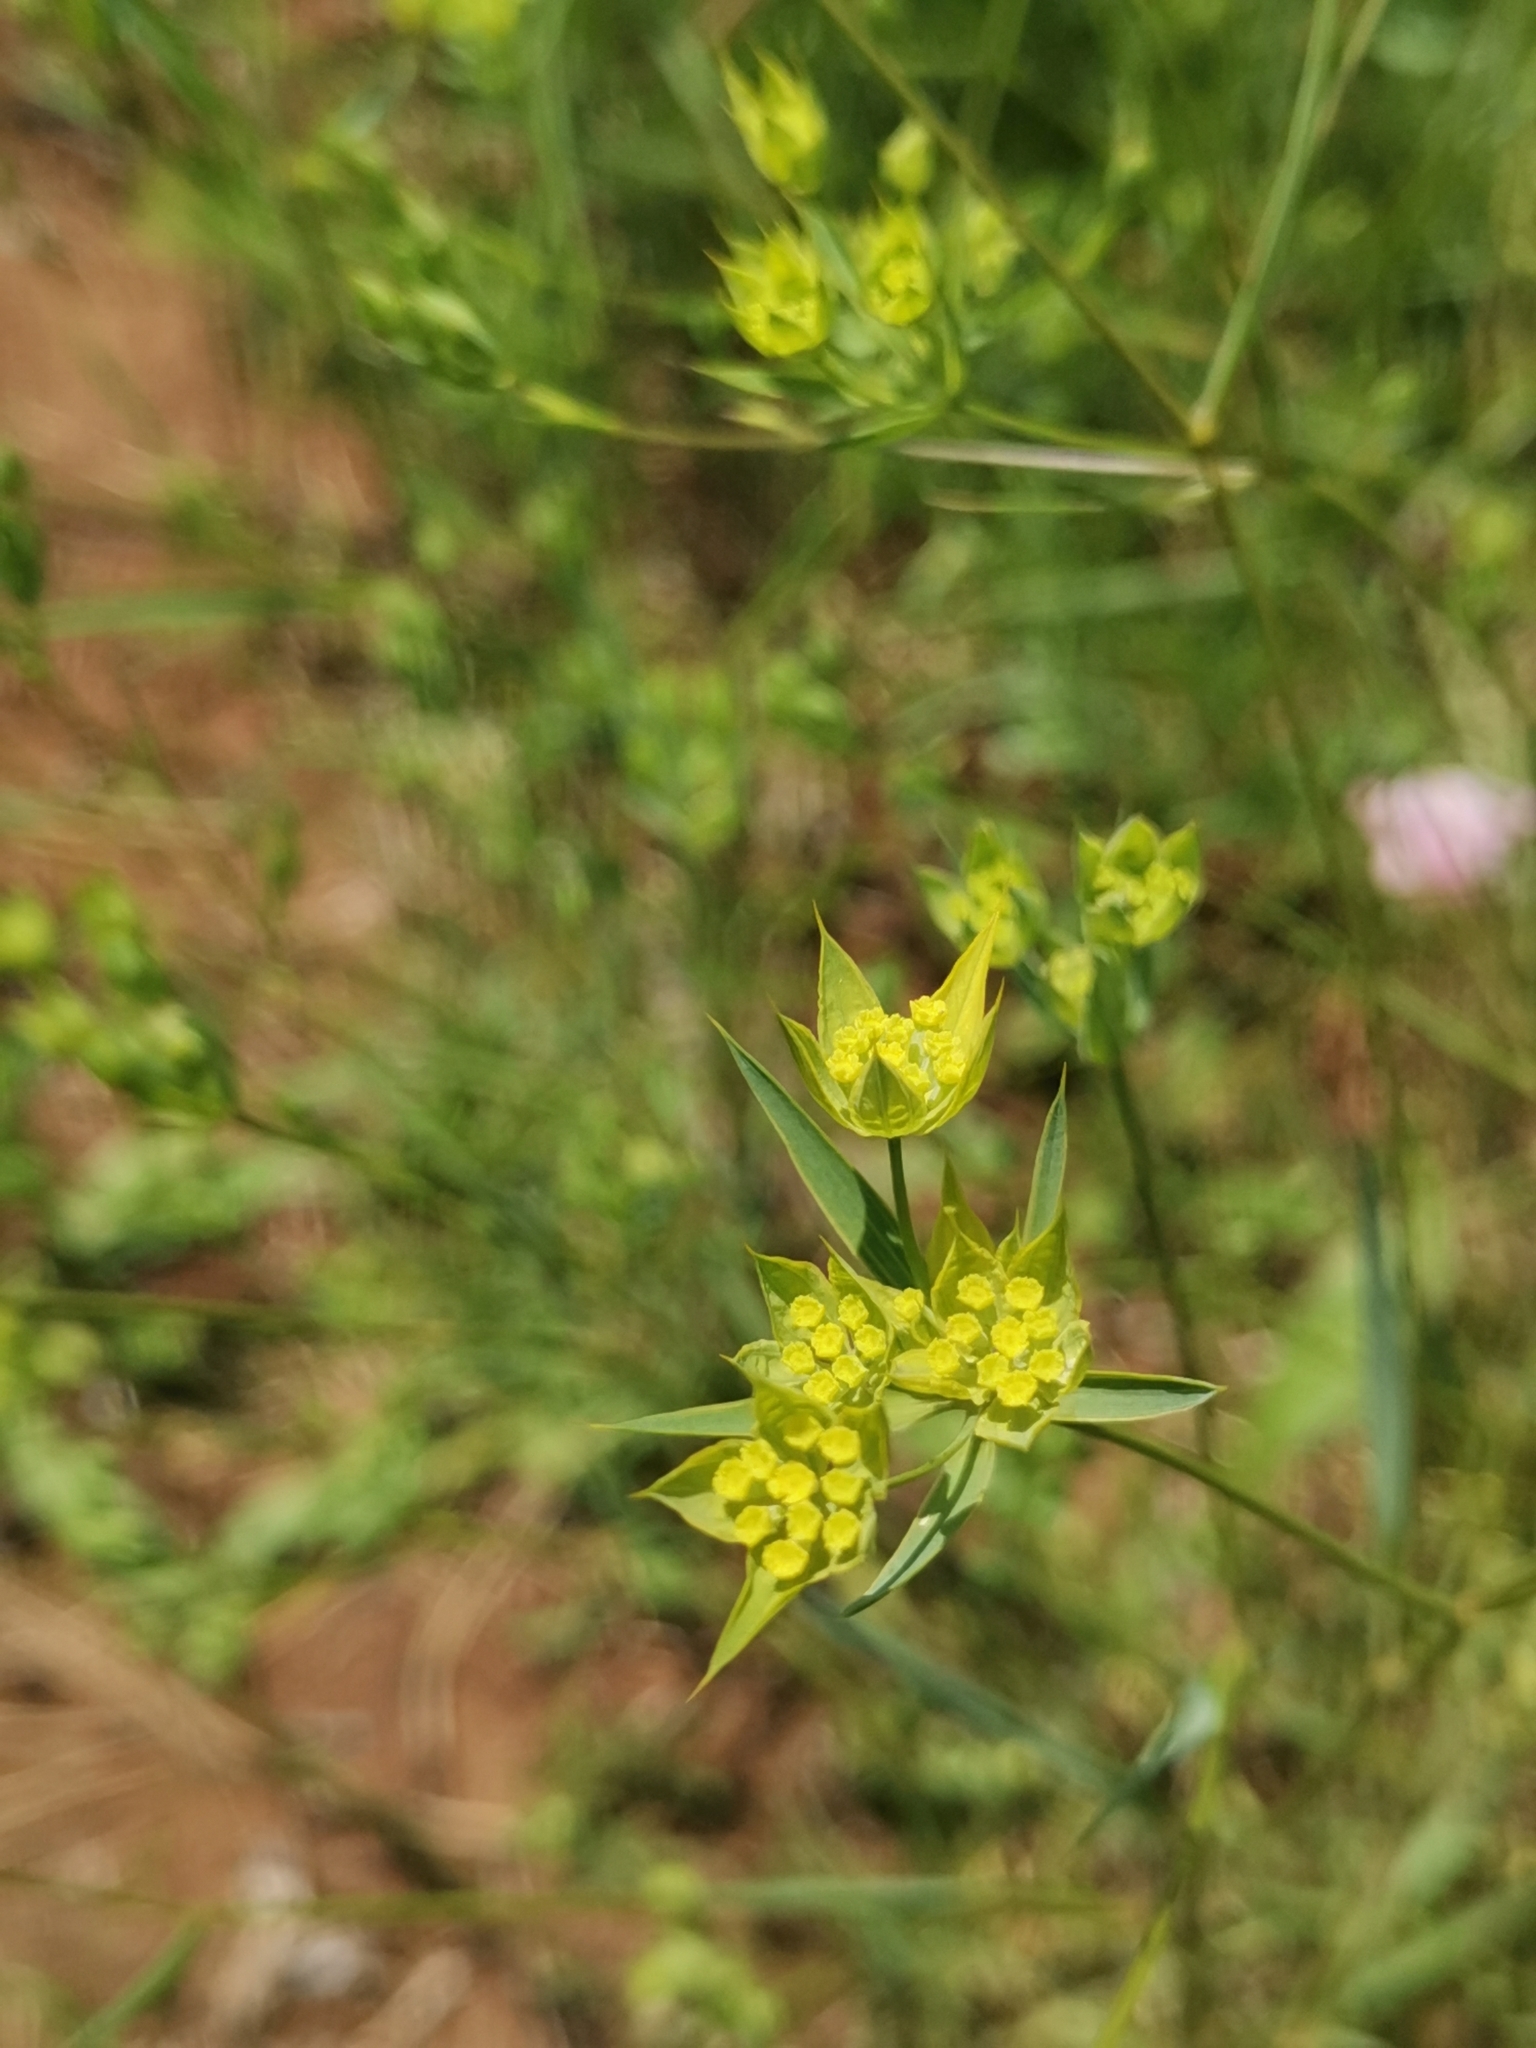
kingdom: Plantae
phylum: Tracheophyta
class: Magnoliopsida
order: Apiales
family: Apiaceae
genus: Bupleurum
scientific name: Bupleurum veronense
